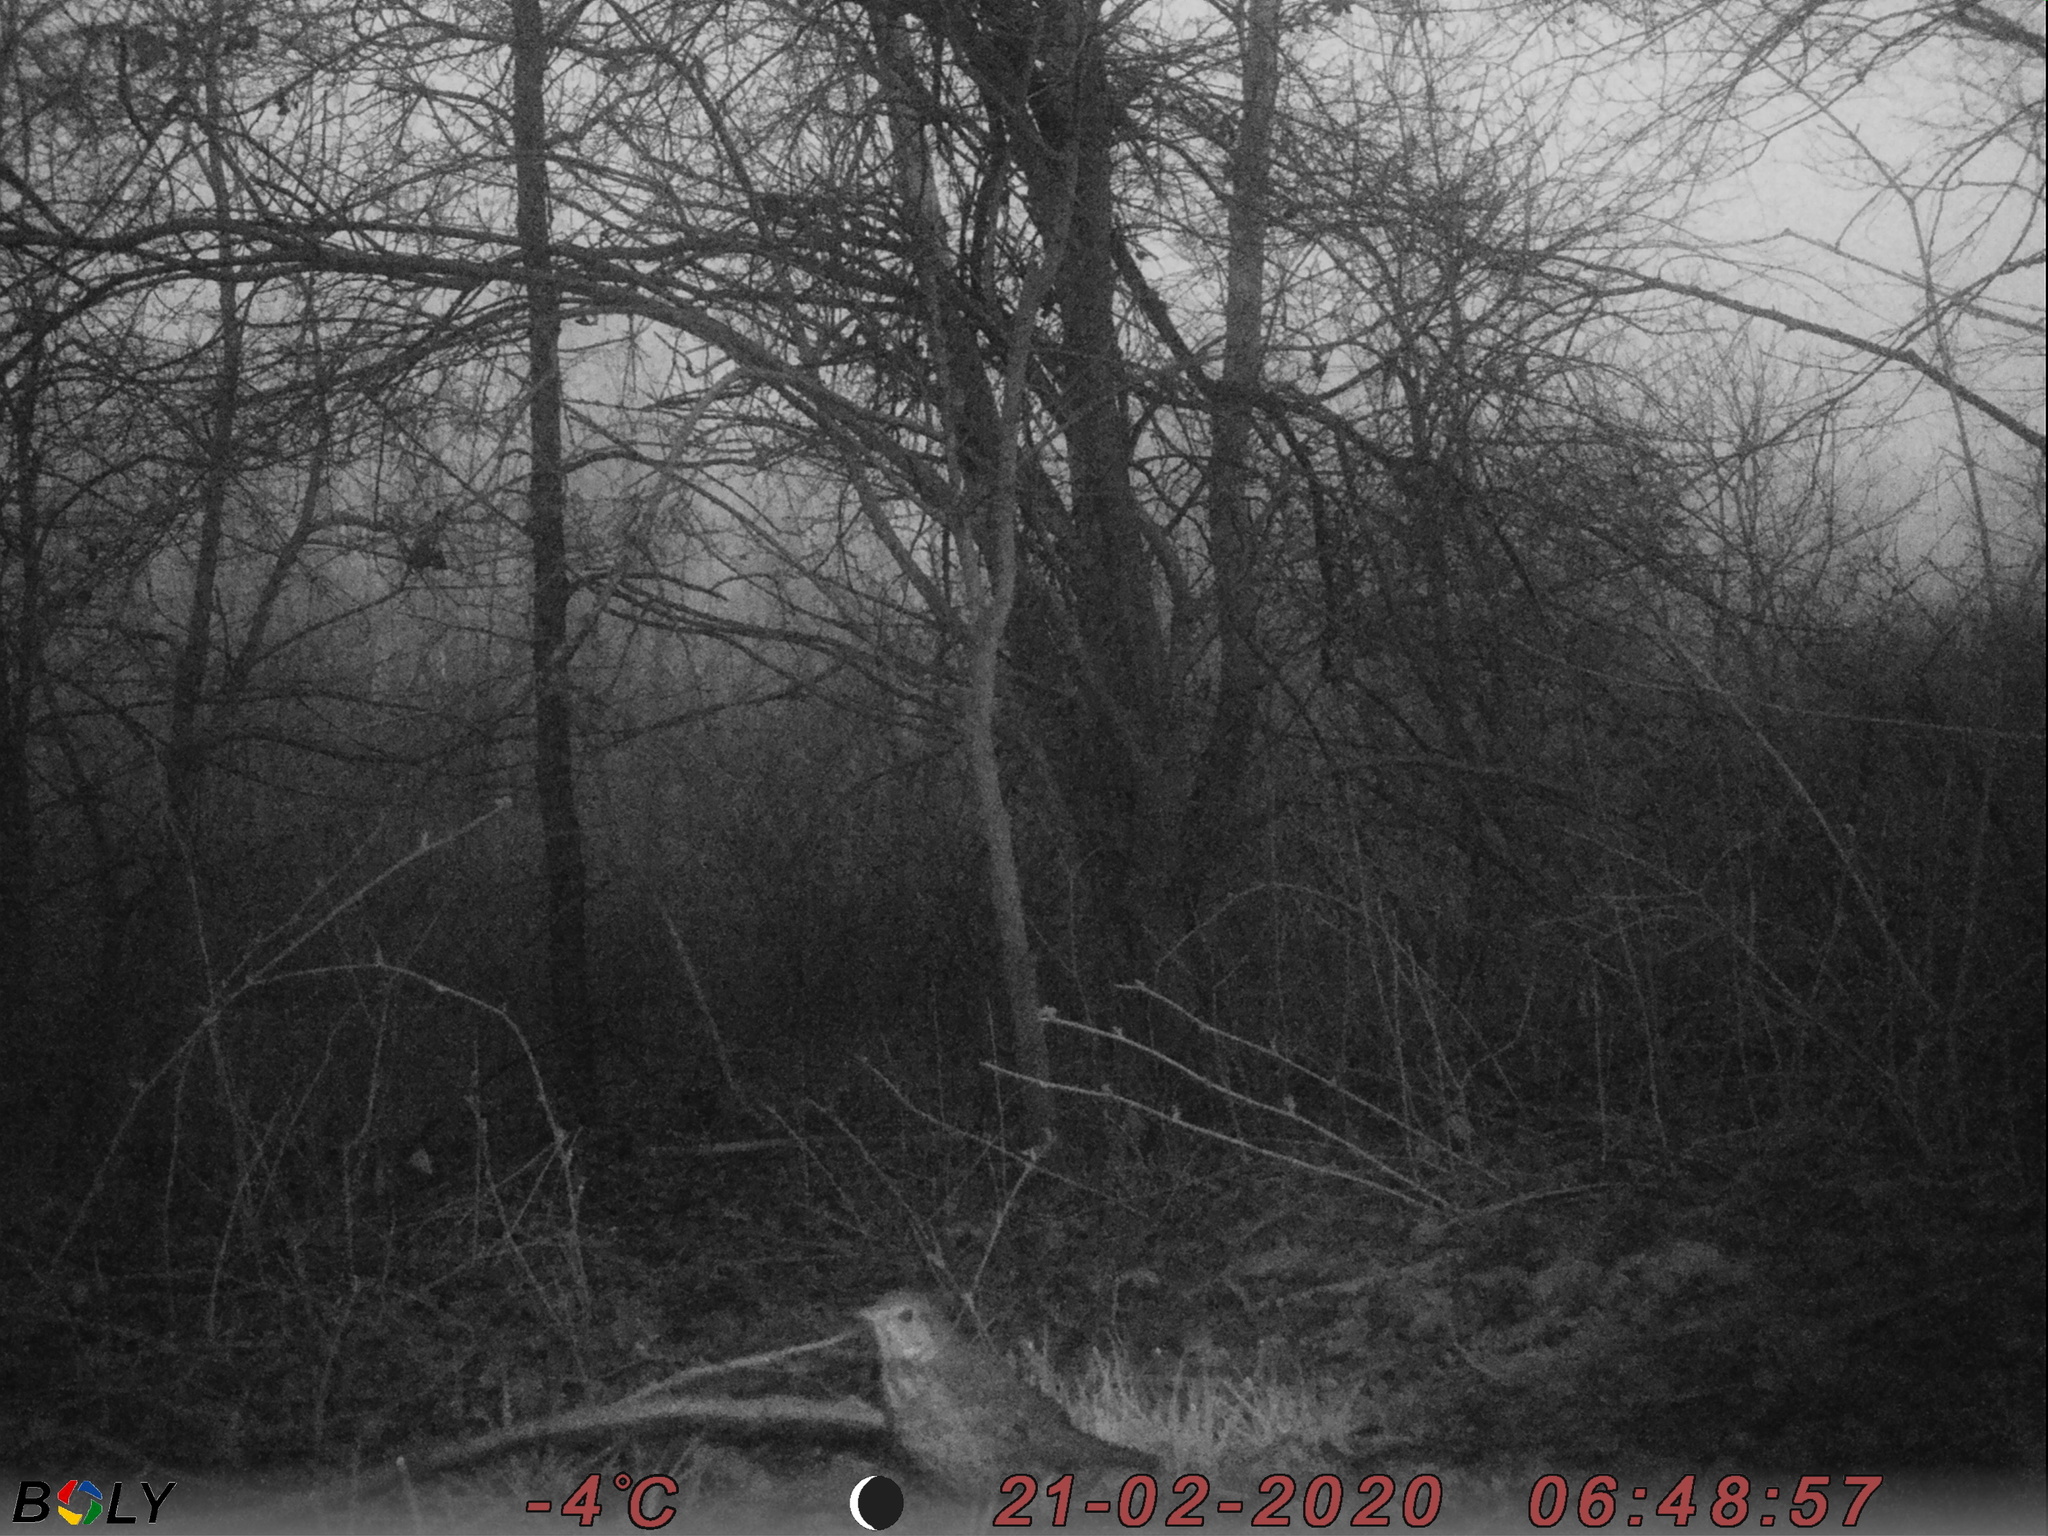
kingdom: Animalia
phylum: Chordata
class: Aves
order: Passeriformes
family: Turdidae
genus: Turdus
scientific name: Turdus philomelos
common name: Song thrush
